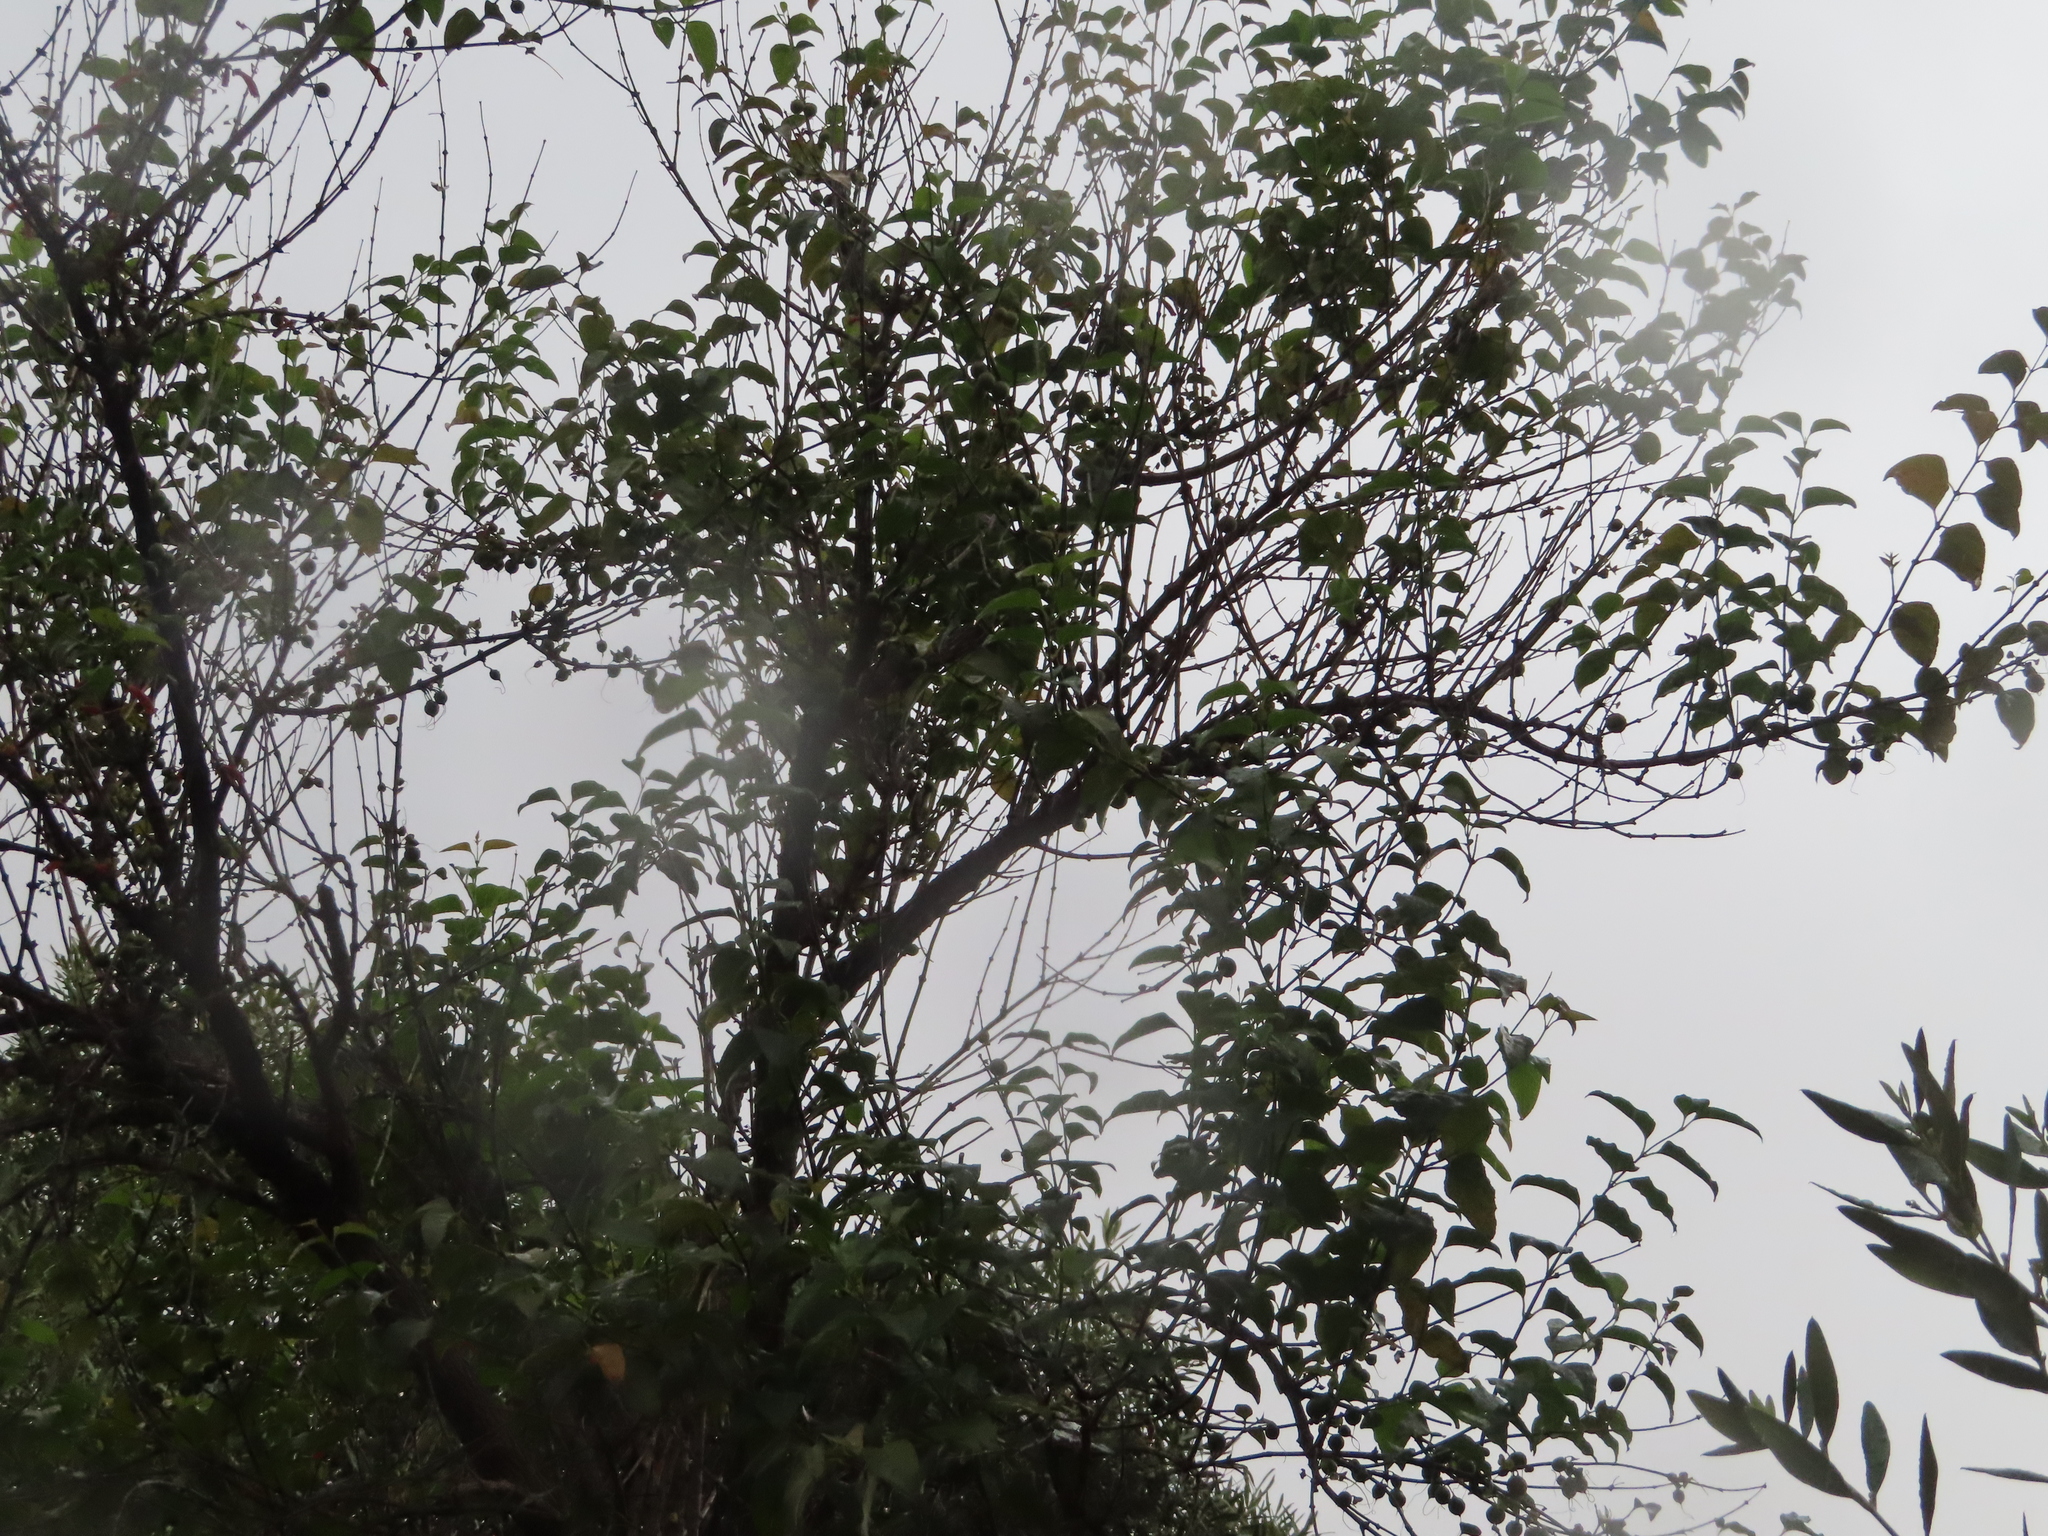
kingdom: Plantae
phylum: Tracheophyta
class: Magnoliopsida
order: Lamiales
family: Stilbaceae
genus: Halleria
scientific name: Halleria lucida
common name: Tree fuschia
